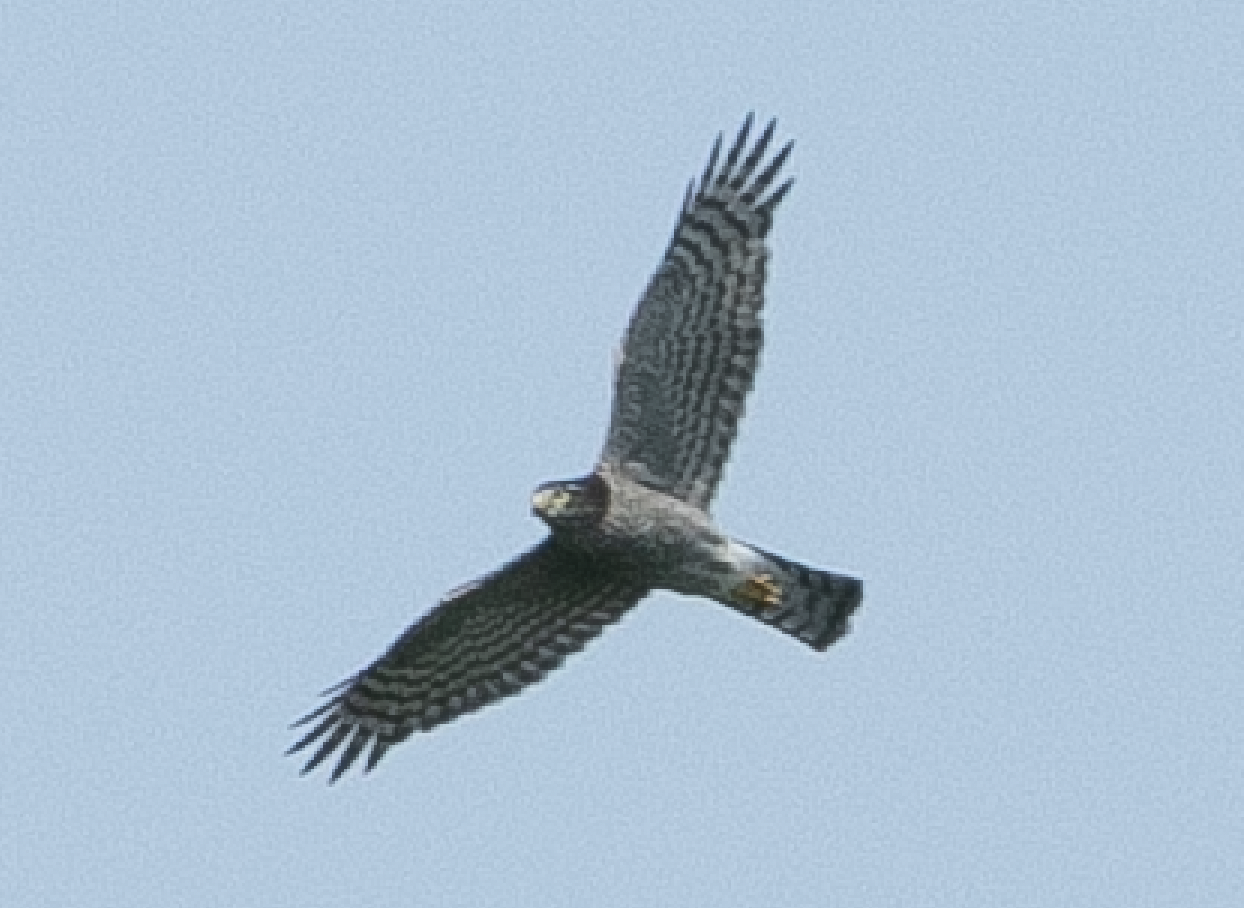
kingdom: Animalia
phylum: Chordata
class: Aves
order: Accipitriformes
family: Accipitridae
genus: Accipiter
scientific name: Accipiter nisus
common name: Eurasian sparrowhawk
